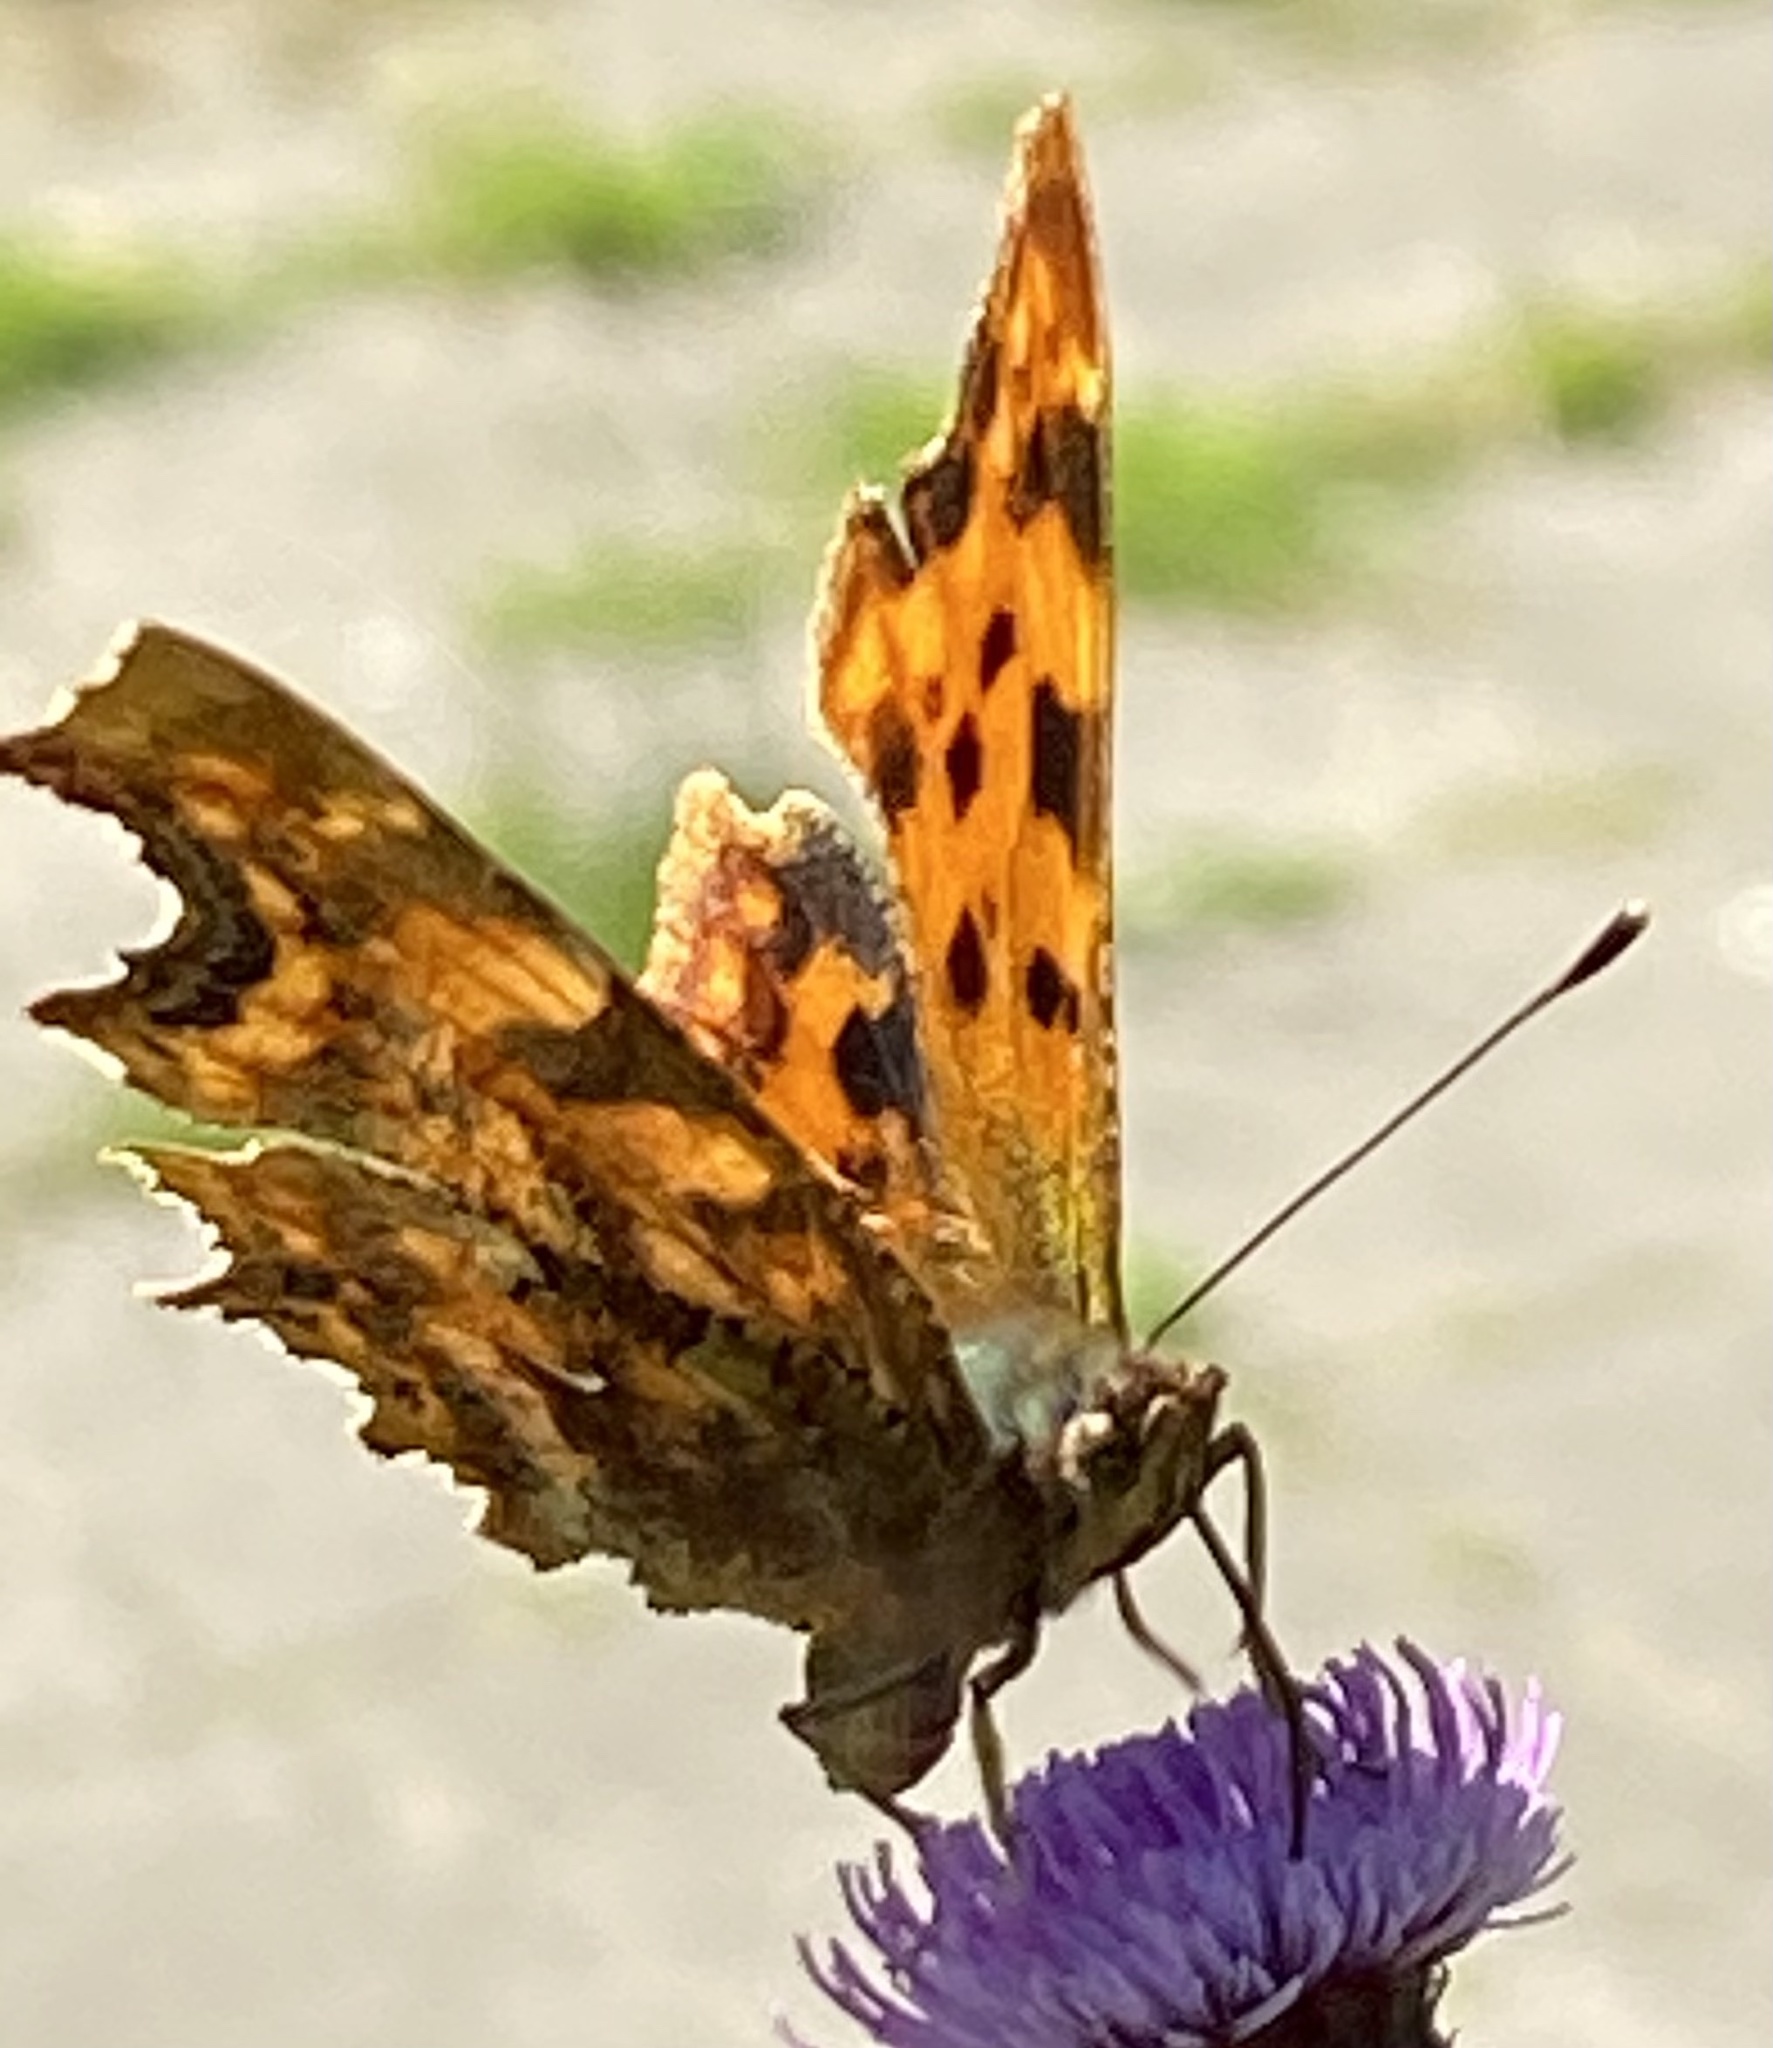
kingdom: Animalia
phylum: Arthropoda
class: Insecta
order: Lepidoptera
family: Nymphalidae
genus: Polygonia
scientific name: Polygonia c-album
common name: Comma
